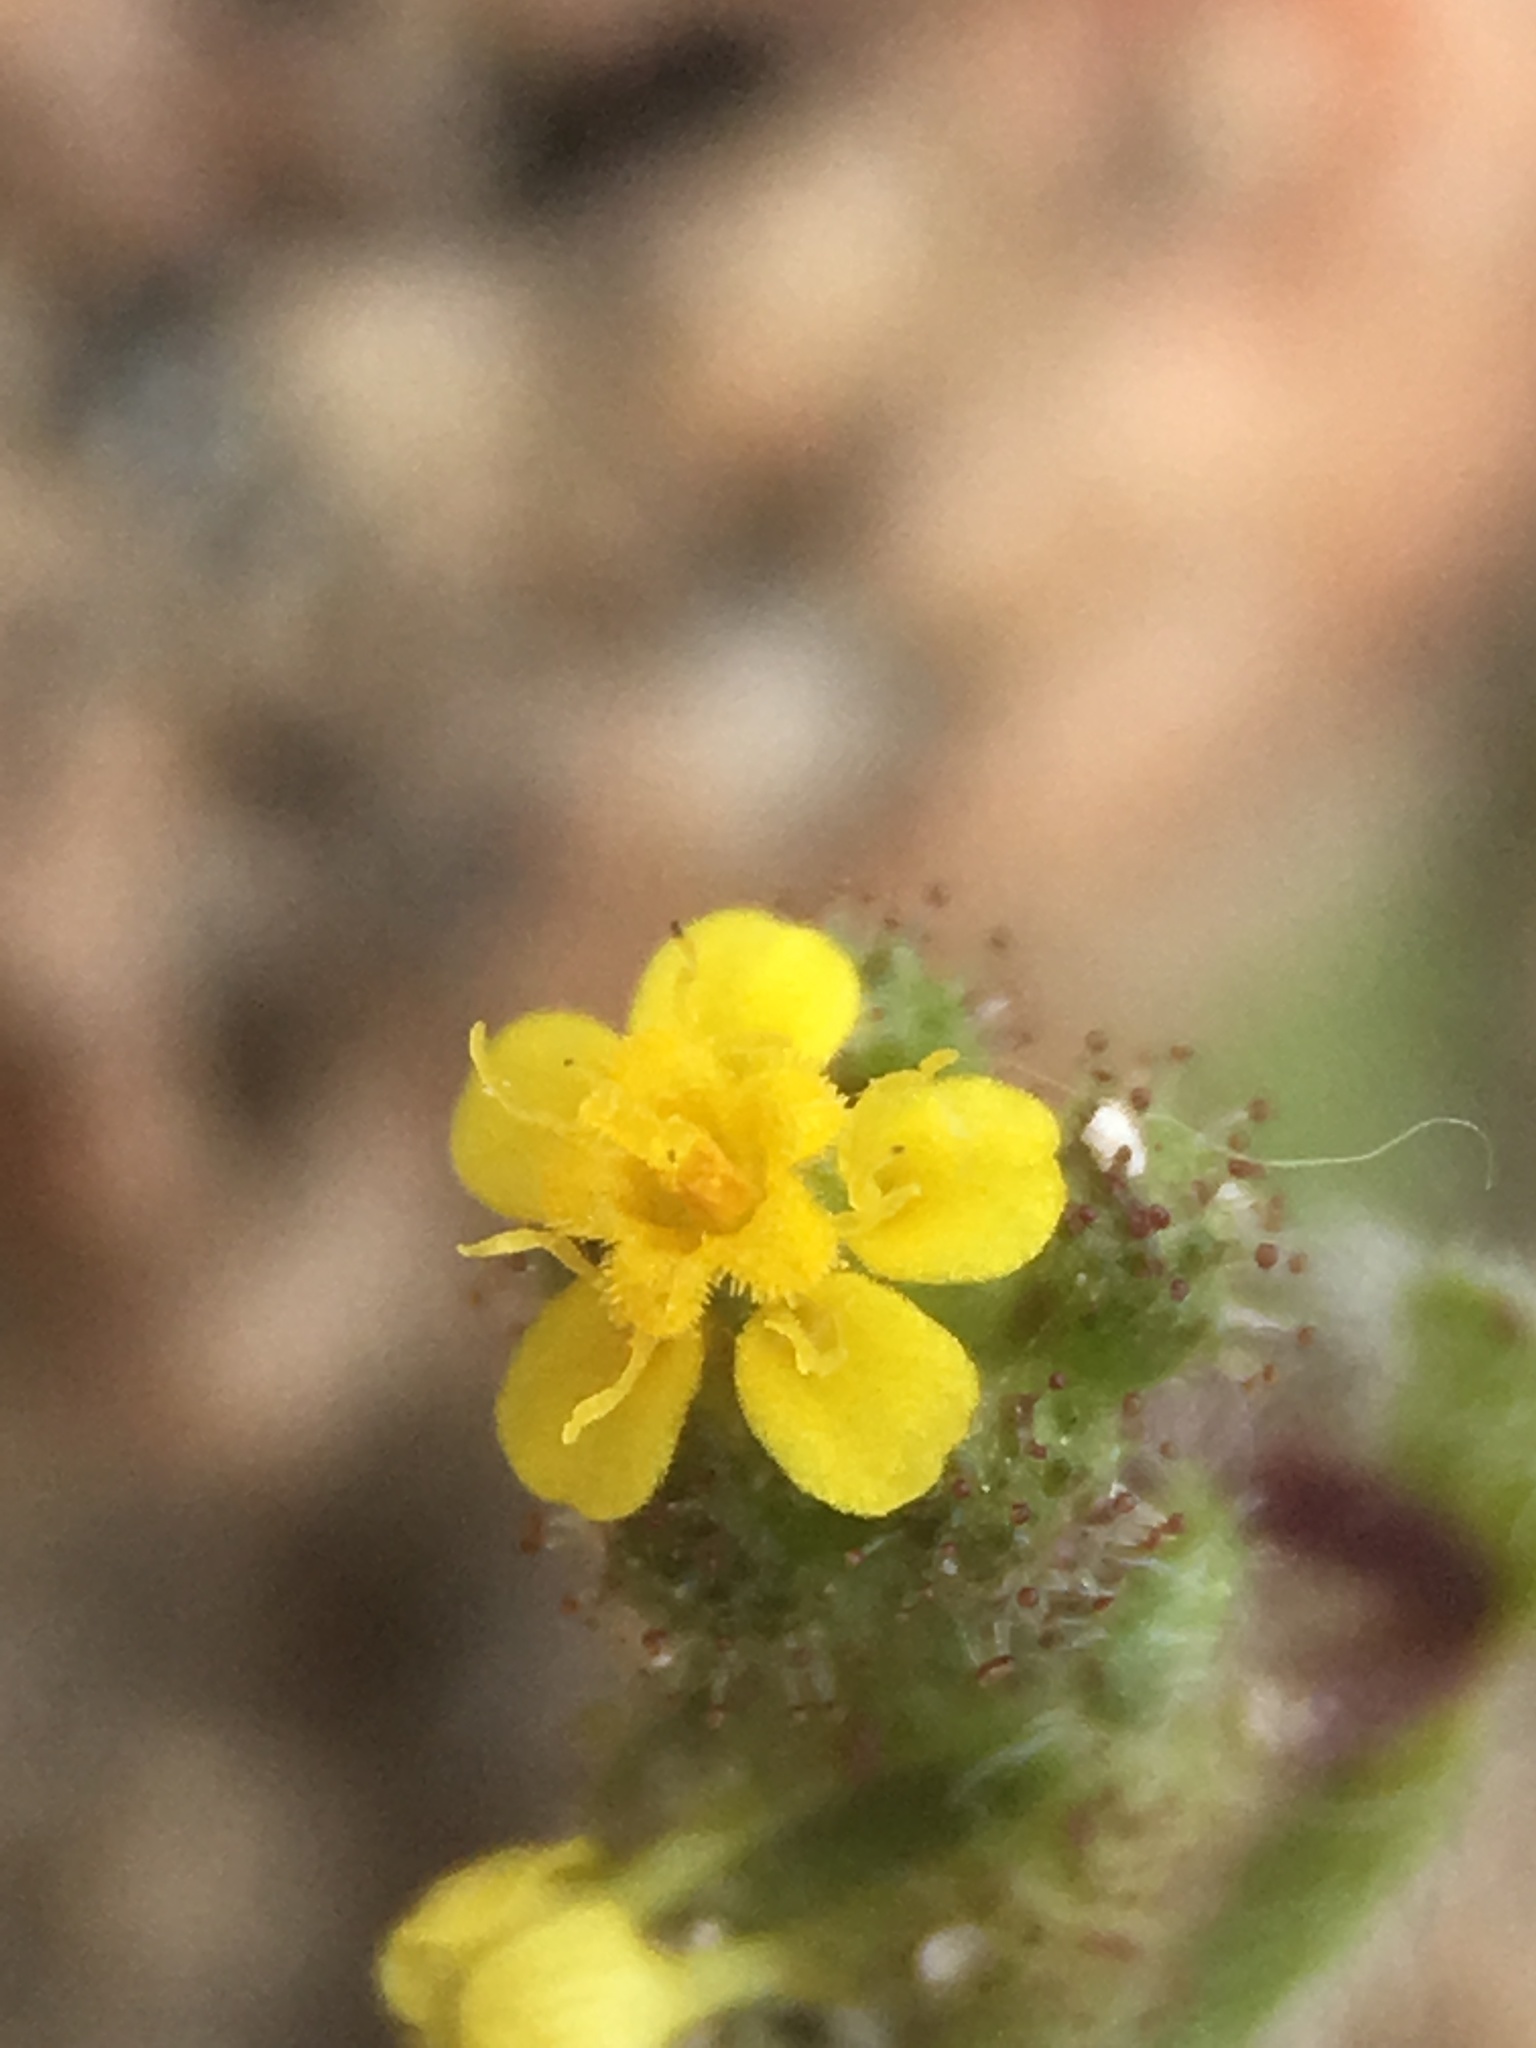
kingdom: Plantae
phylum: Tracheophyta
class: Magnoliopsida
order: Asterales
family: Asteraceae
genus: Hemizonella
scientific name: Hemizonella minima
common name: Opposite-leaved tarweed
